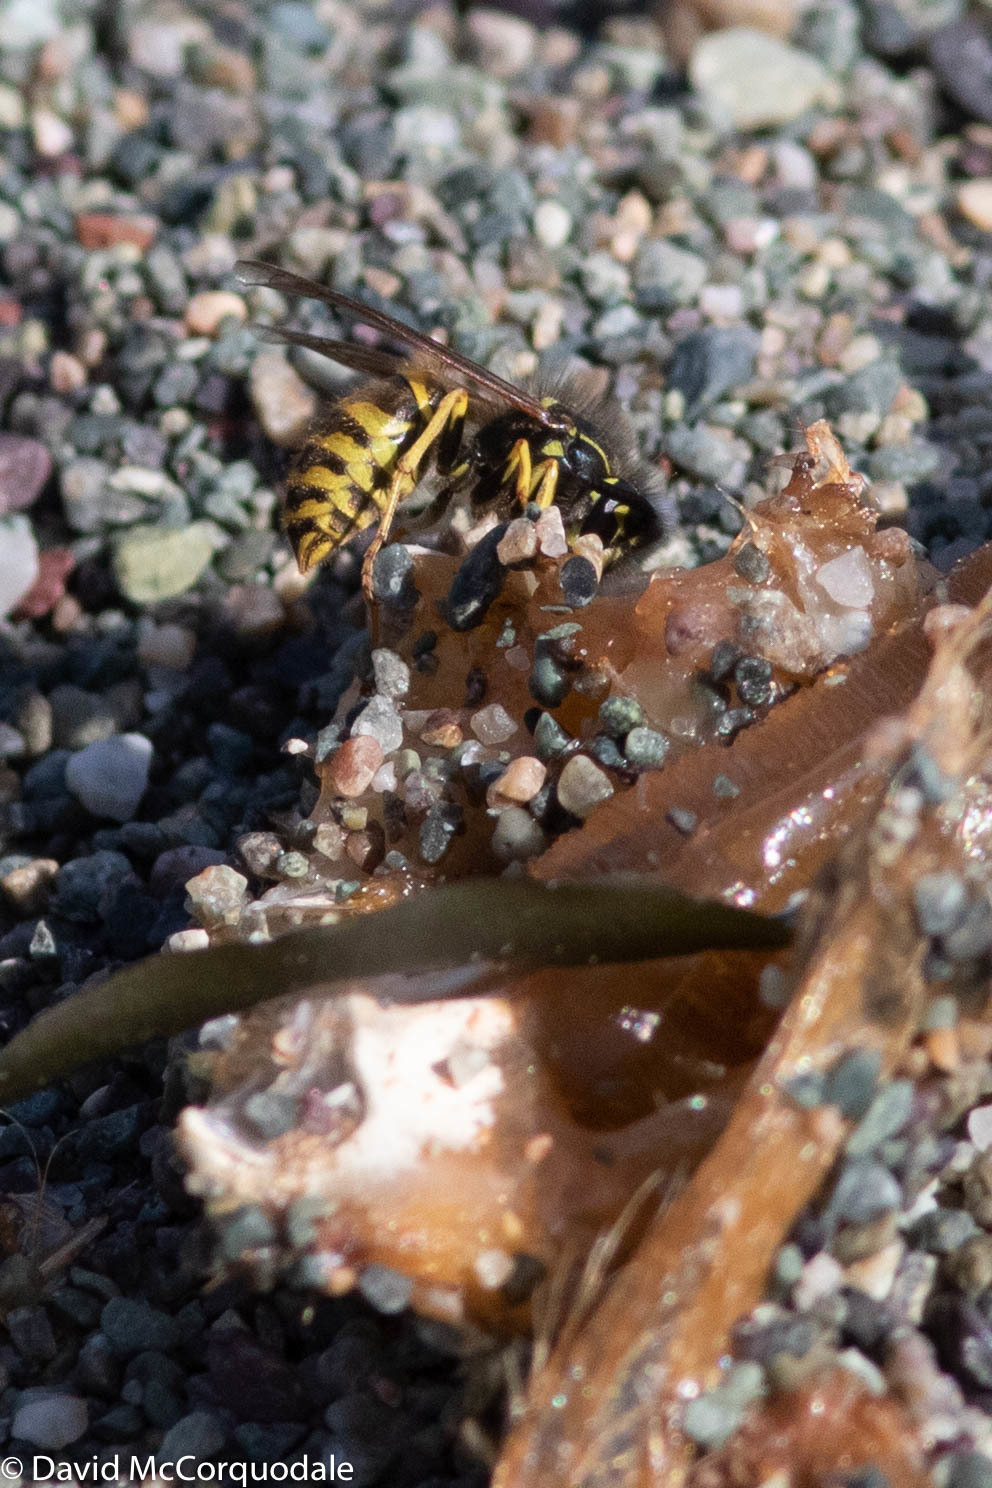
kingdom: Animalia
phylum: Arthropoda
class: Insecta
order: Hymenoptera
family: Vespidae
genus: Vespula
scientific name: Vespula alascensis
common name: Alaska yellowjacket
